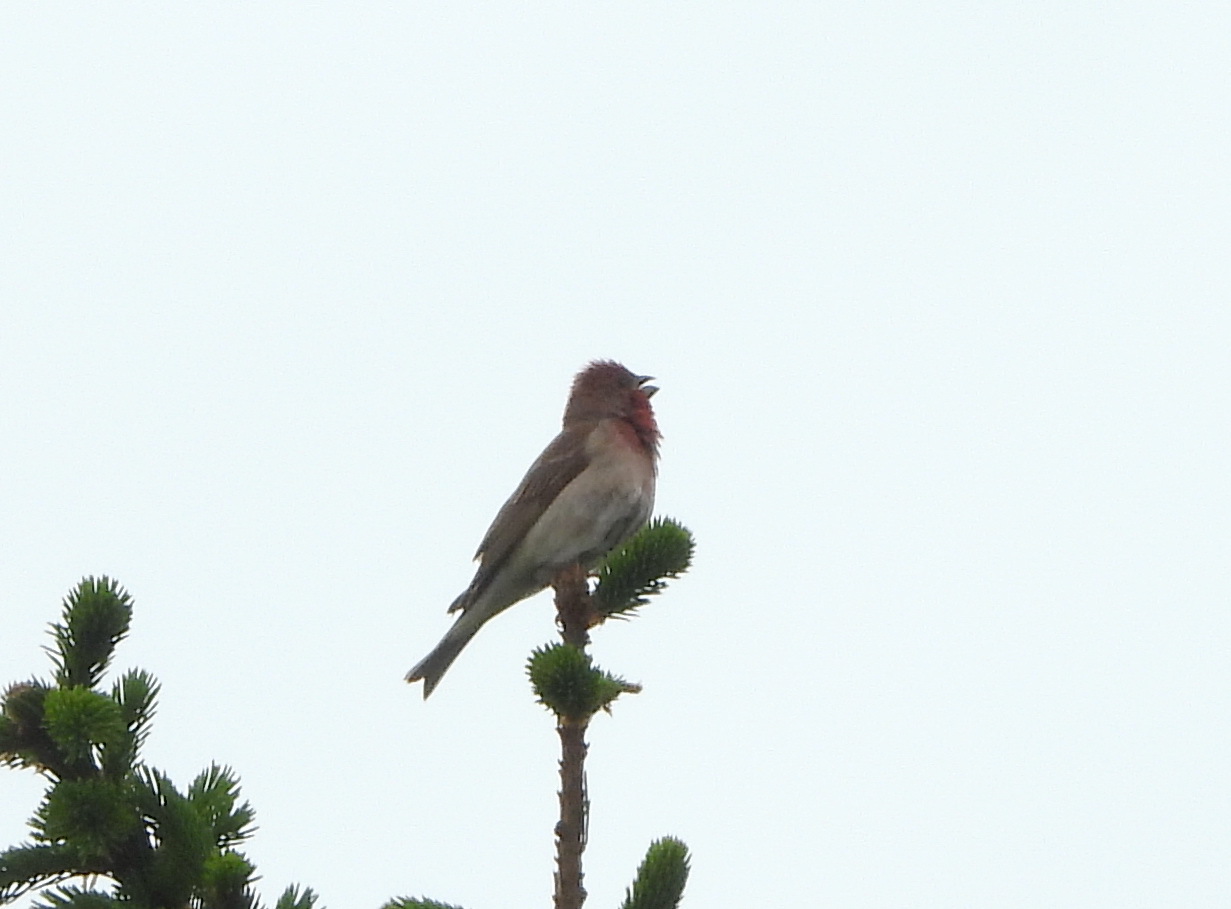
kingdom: Animalia
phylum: Chordata
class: Aves
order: Passeriformes
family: Fringillidae
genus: Carpodacus
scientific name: Carpodacus erythrinus
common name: Common rosefinch
